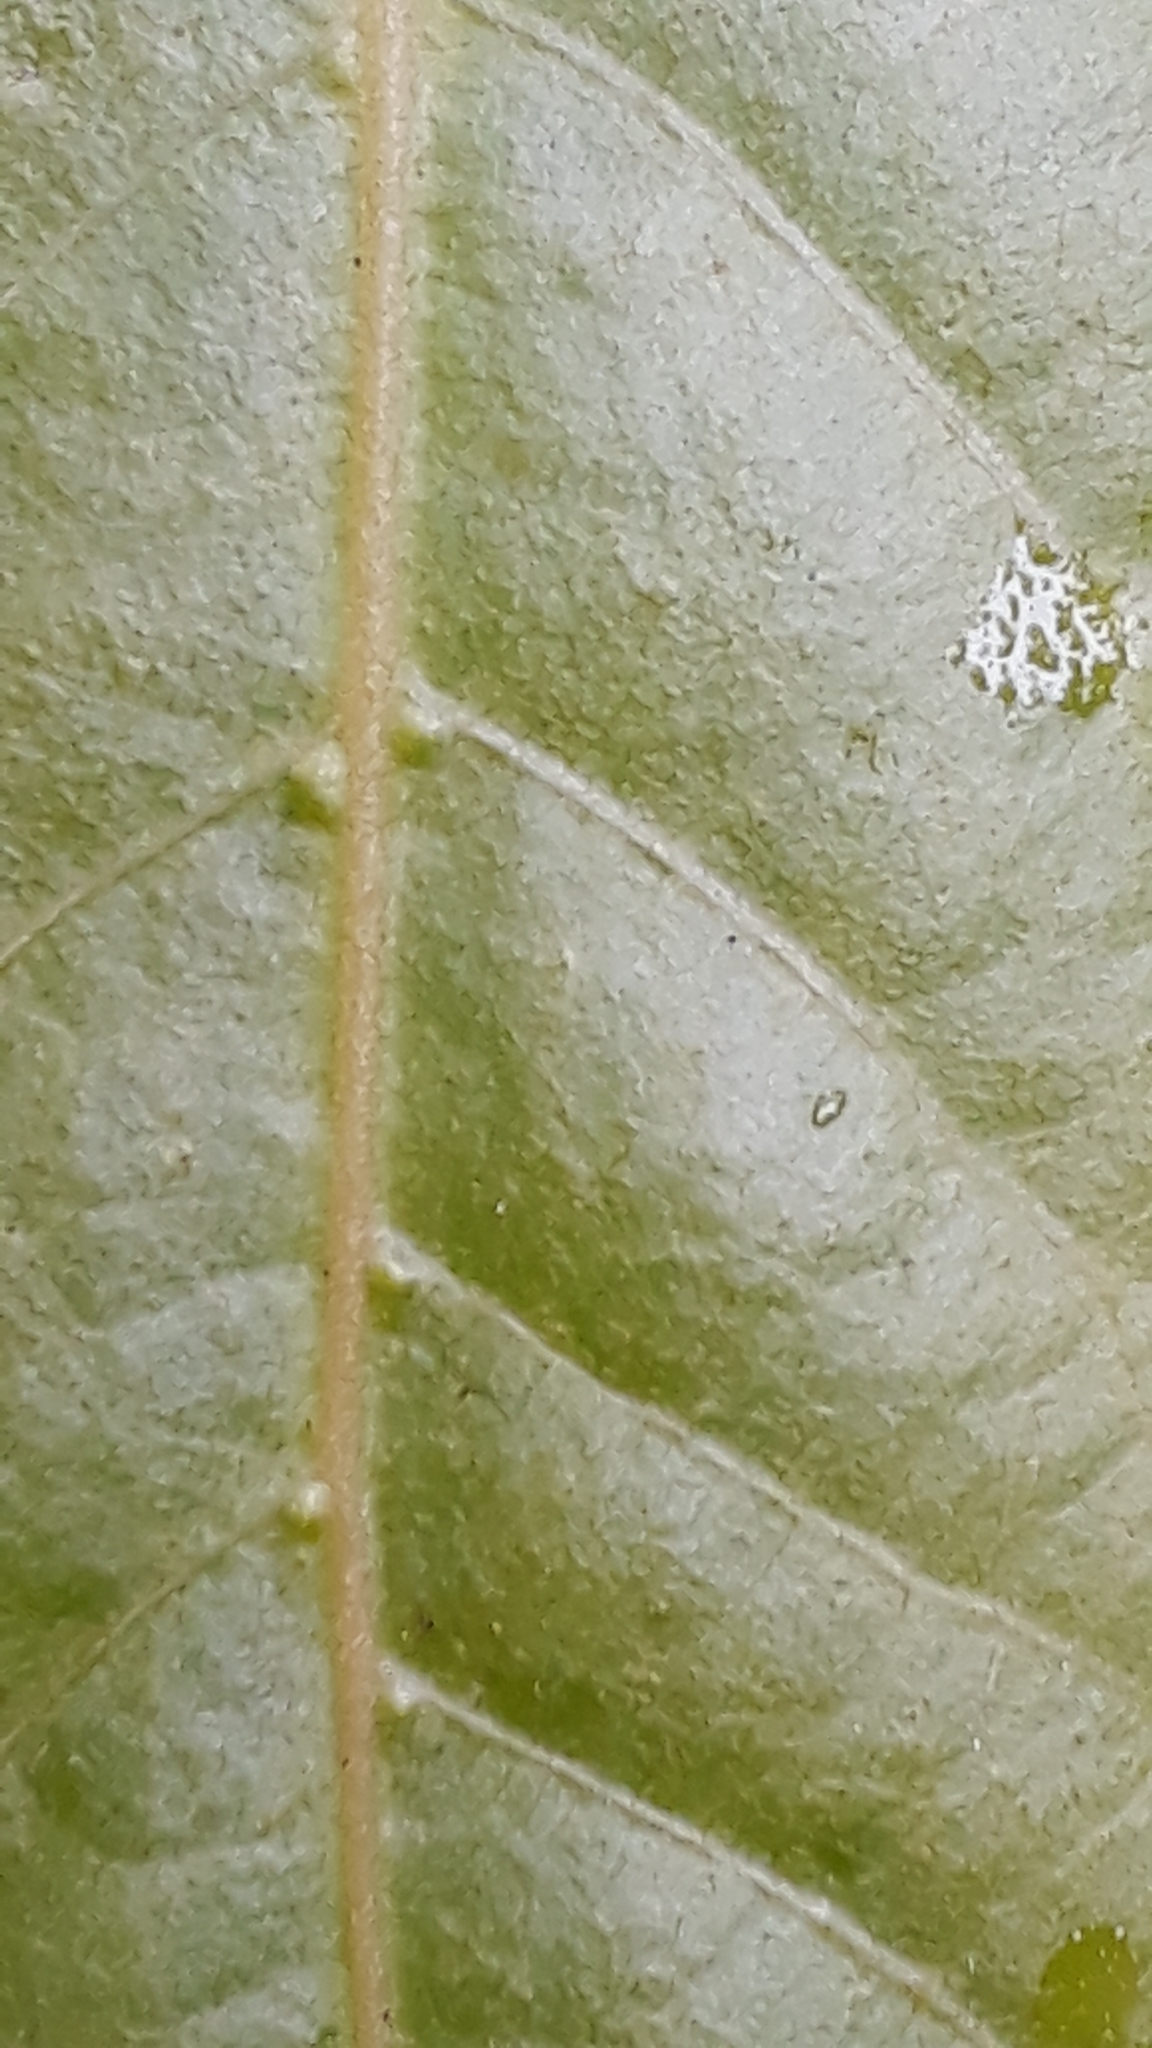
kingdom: Plantae
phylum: Tracheophyta
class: Magnoliopsida
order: Laurales
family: Lauraceae
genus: Laurus
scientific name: Laurus novocanariensis
